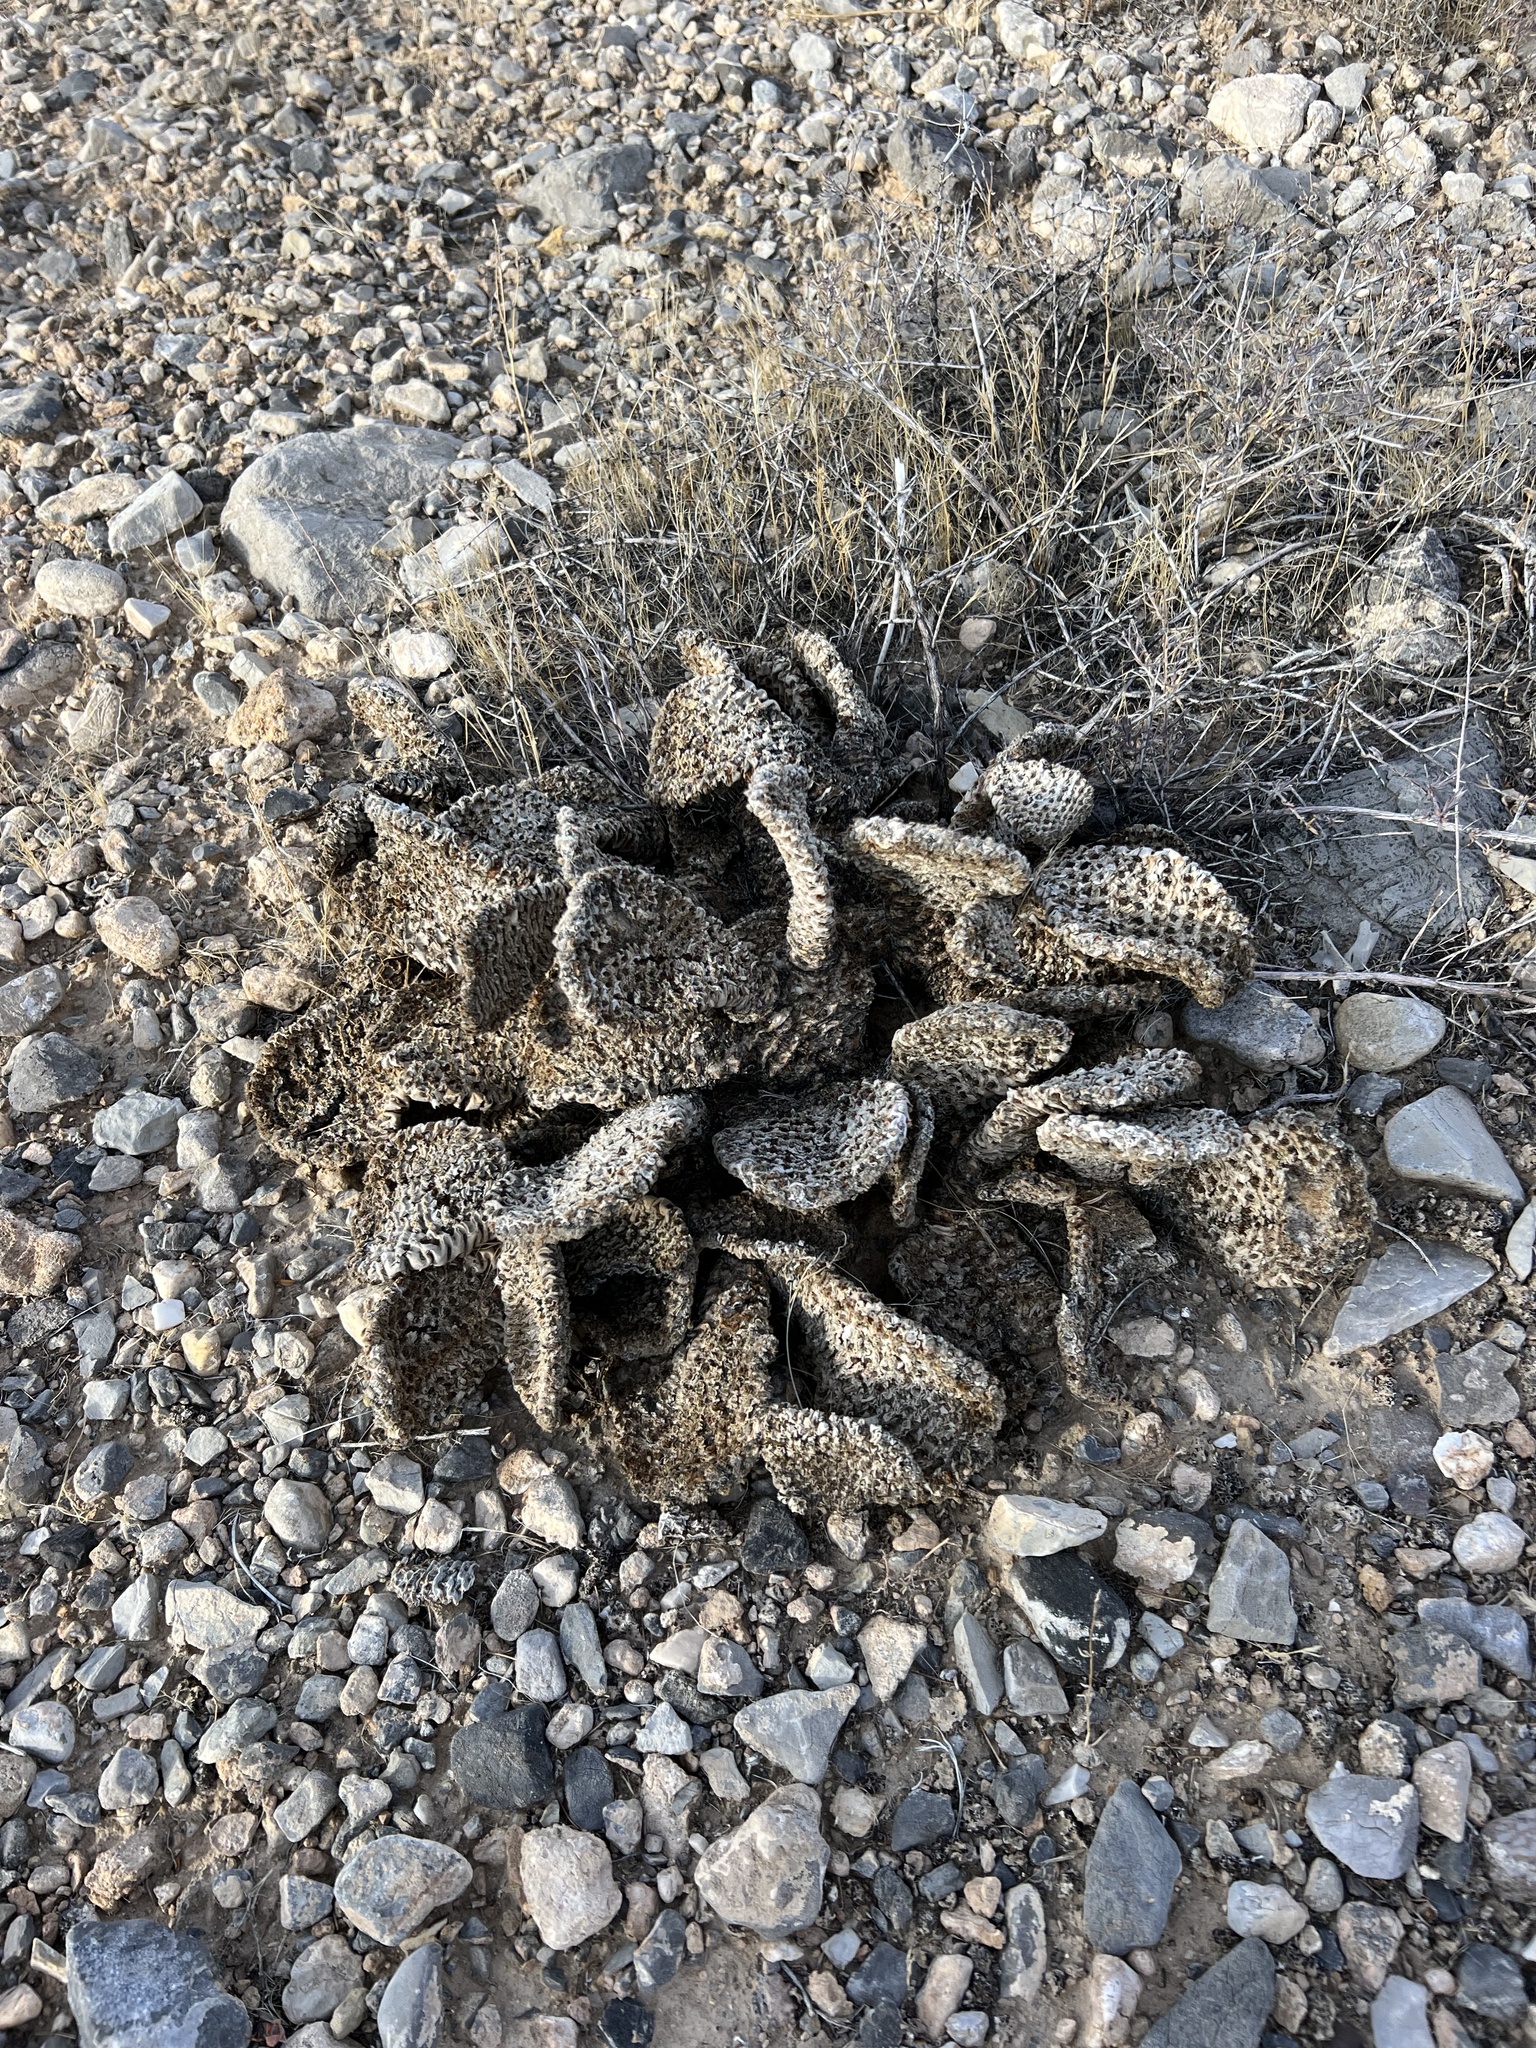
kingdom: Plantae
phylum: Tracheophyta
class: Magnoliopsida
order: Caryophyllales
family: Cactaceae
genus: Opuntia
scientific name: Opuntia basilaris
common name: Beavertail prickly-pear
